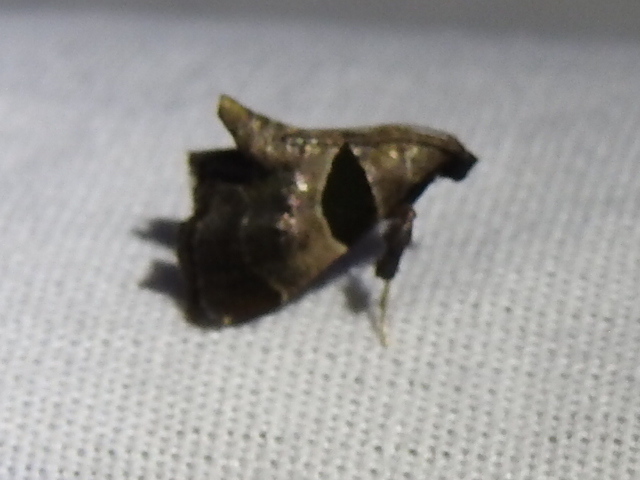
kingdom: Animalia
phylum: Arthropoda
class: Insecta
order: Lepidoptera
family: Pyralidae
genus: Tosale
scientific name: Tosale oviplagalis
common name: Dimorphic tosale moth
